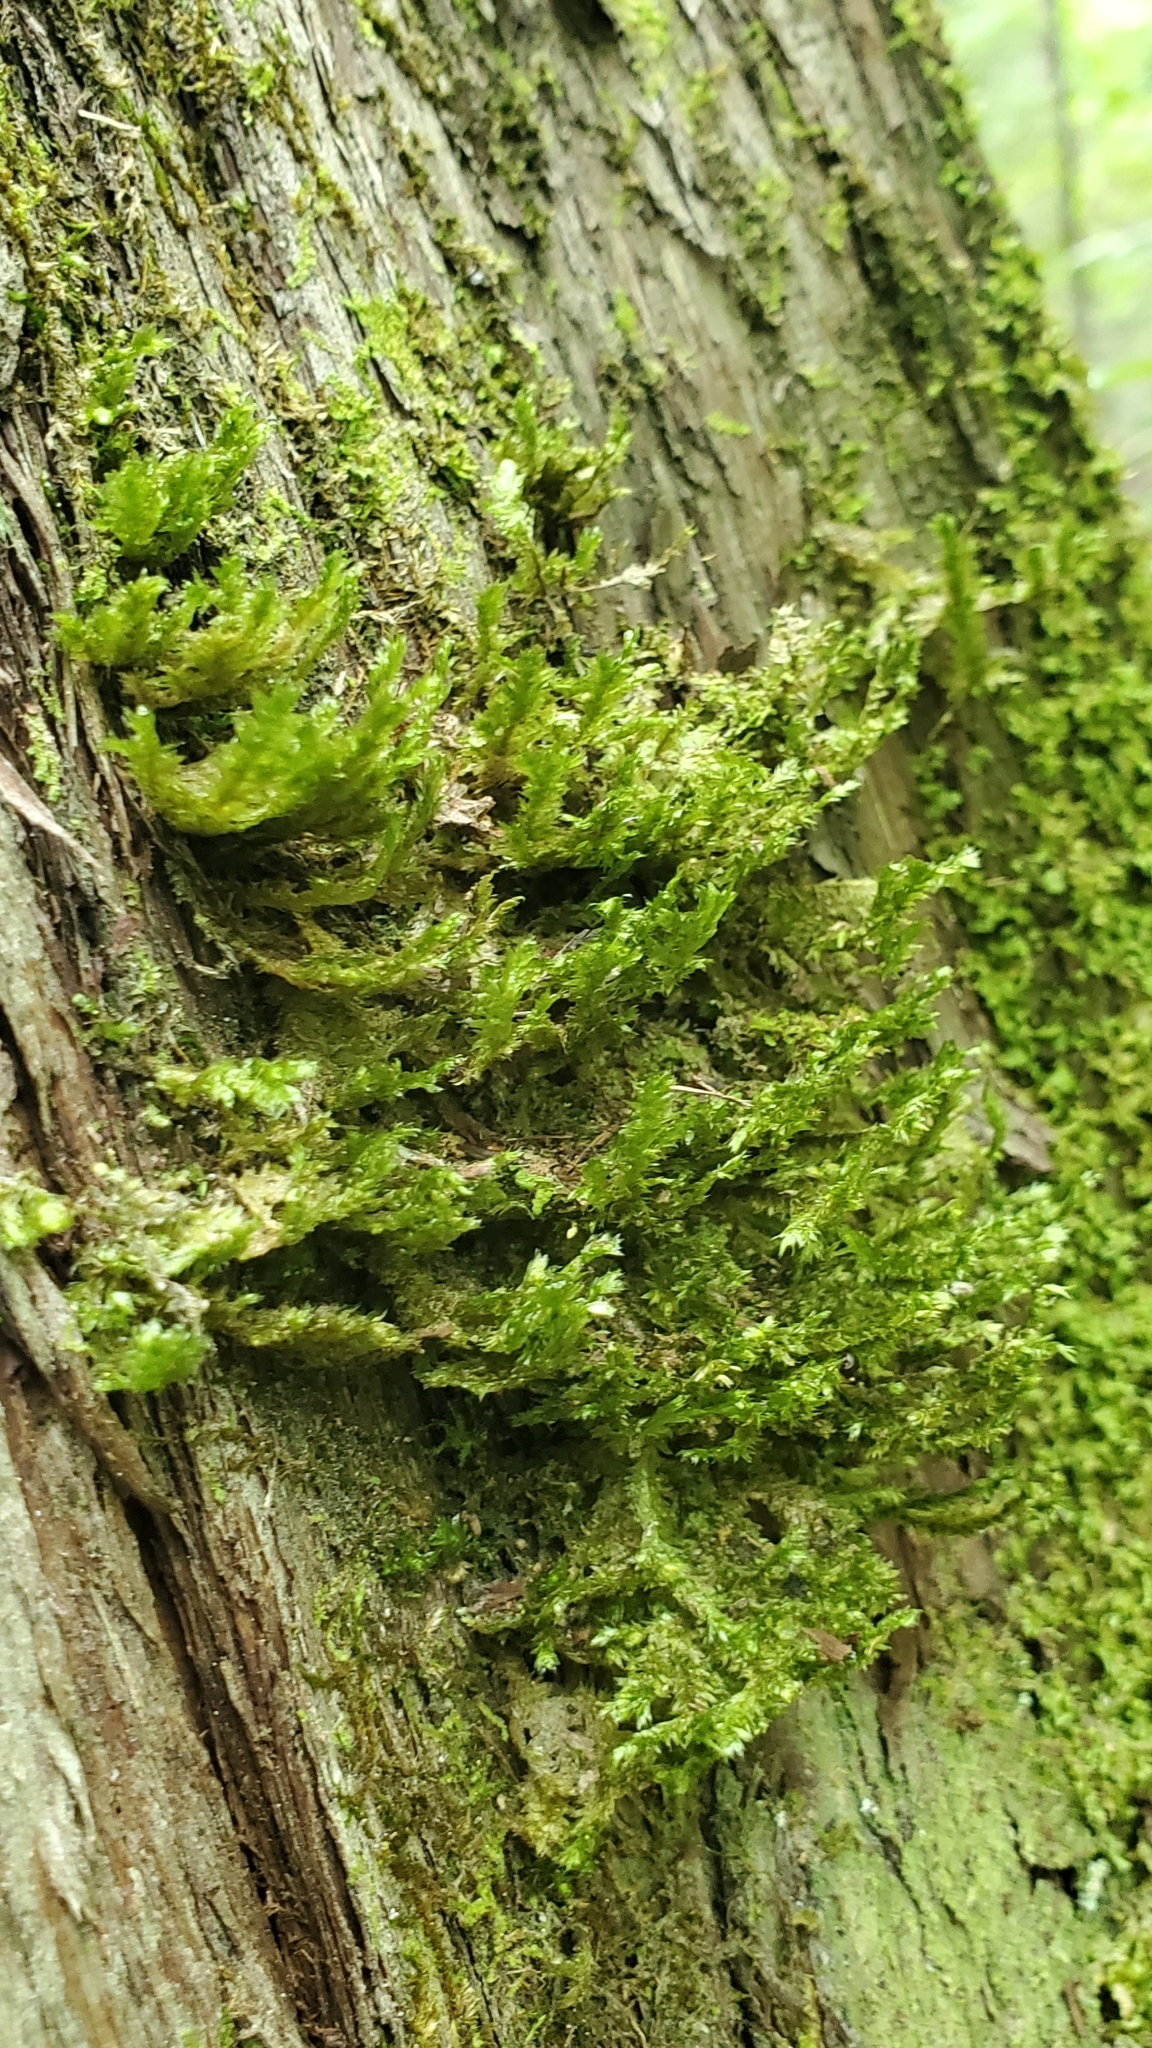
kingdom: Plantae
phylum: Bryophyta
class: Bryopsida
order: Hypnales
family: Neckeraceae
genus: Neckera
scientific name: Neckera pennata
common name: Feathery neckera
